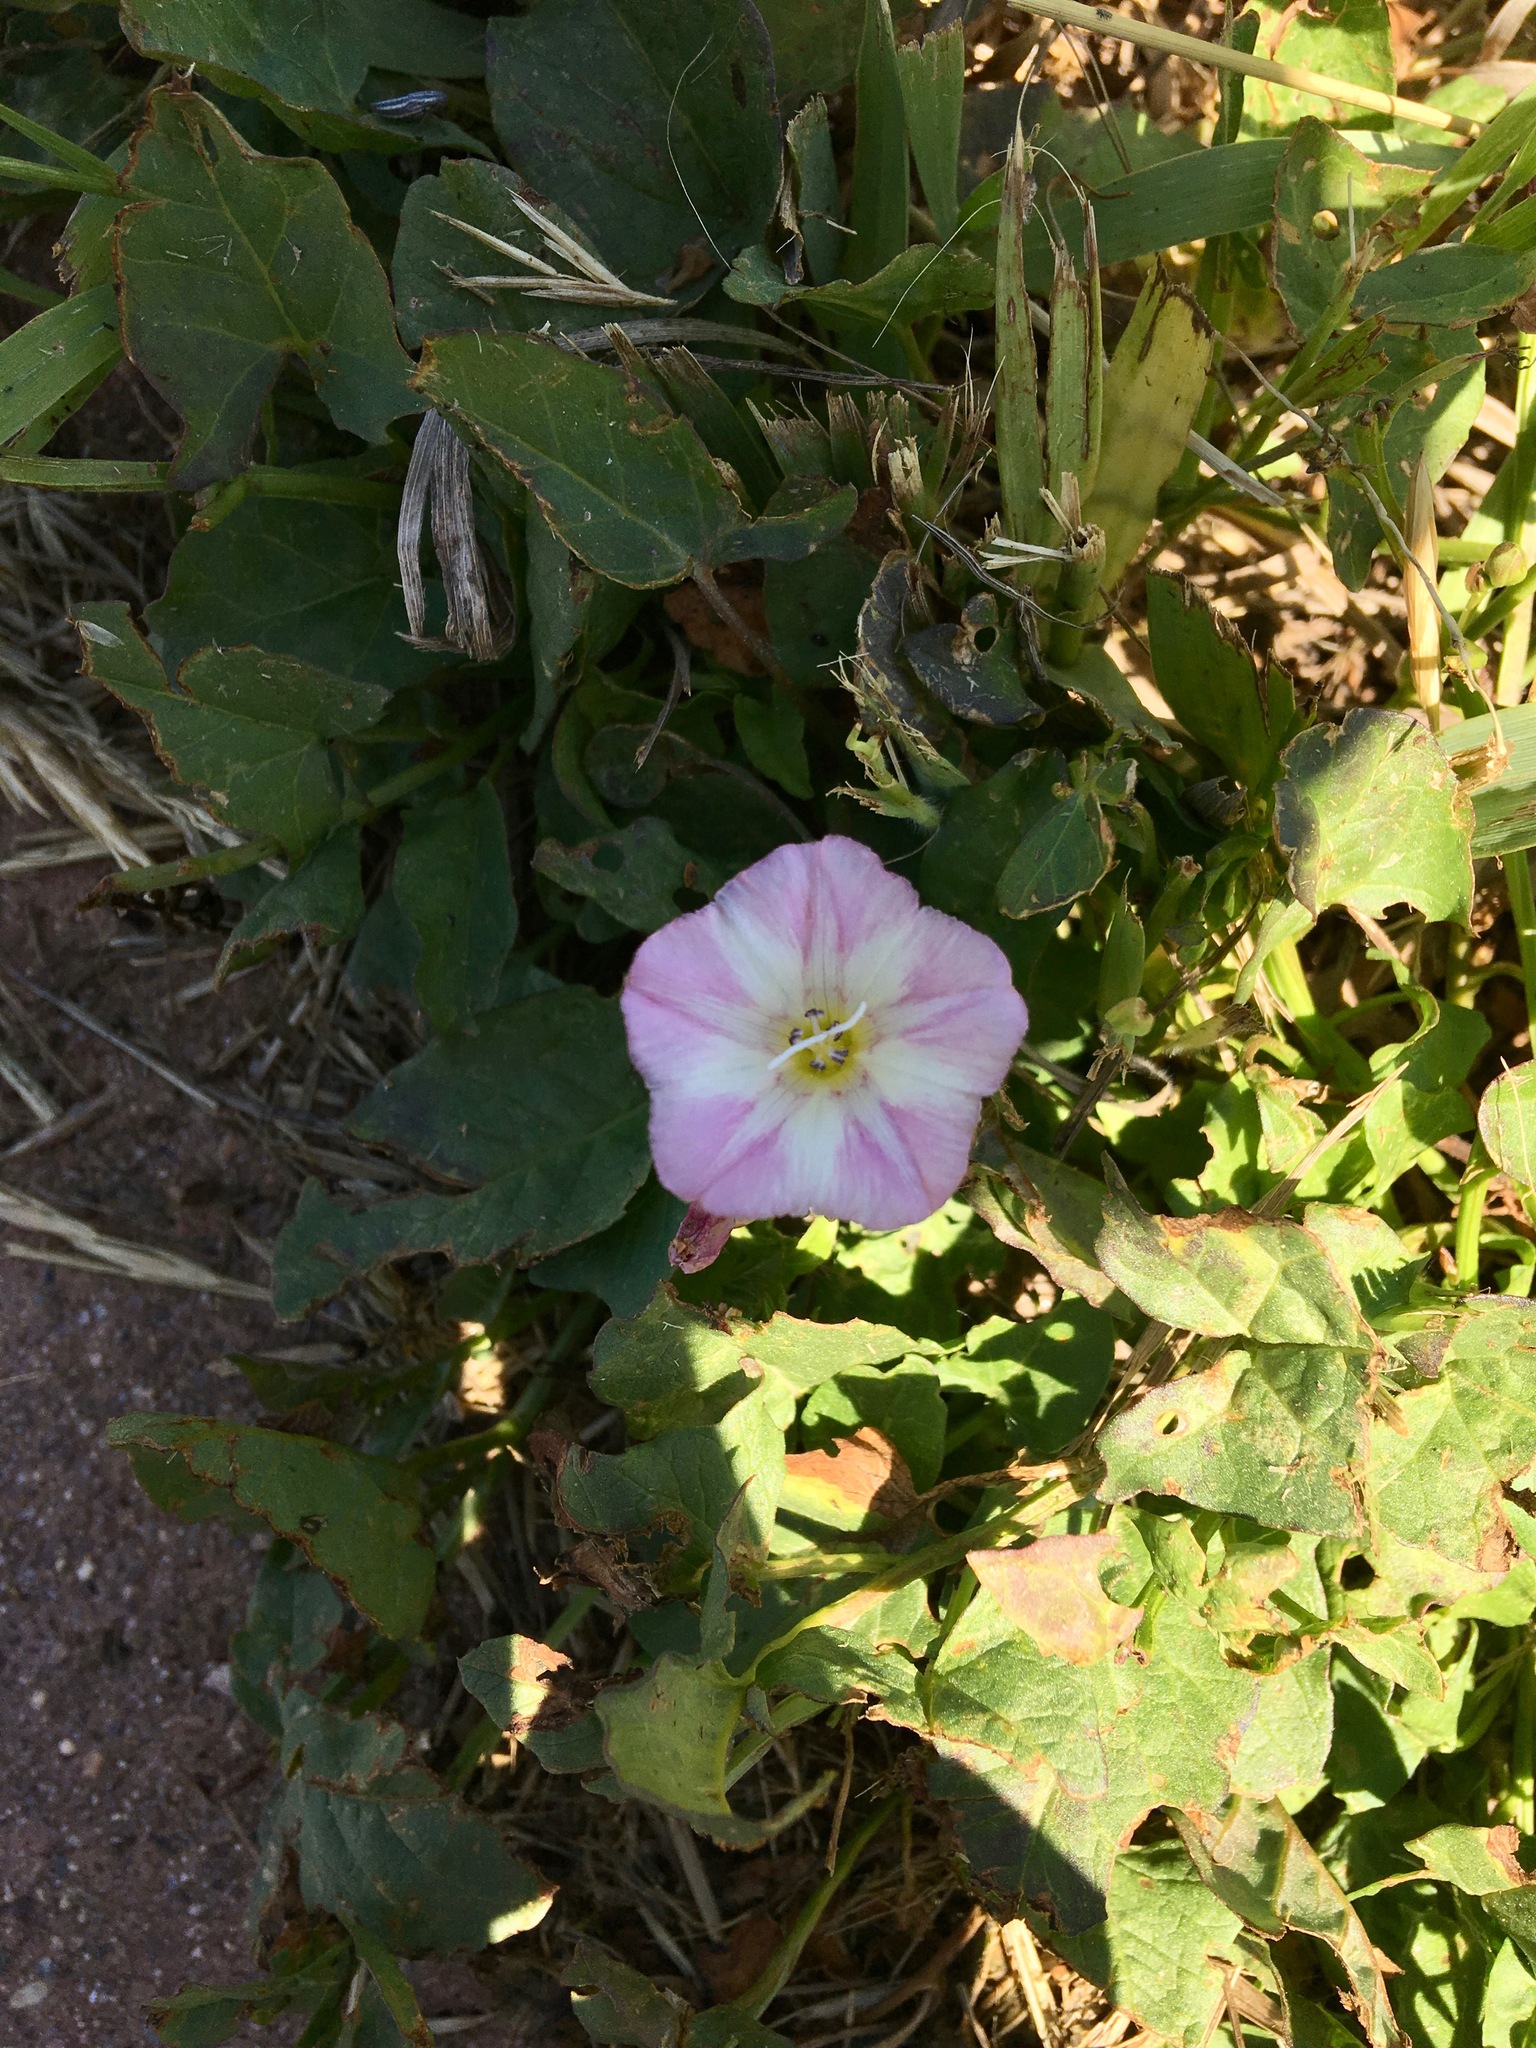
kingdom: Plantae
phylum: Tracheophyta
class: Magnoliopsida
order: Solanales
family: Convolvulaceae
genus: Convolvulus
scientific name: Convolvulus arvensis
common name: Field bindweed
